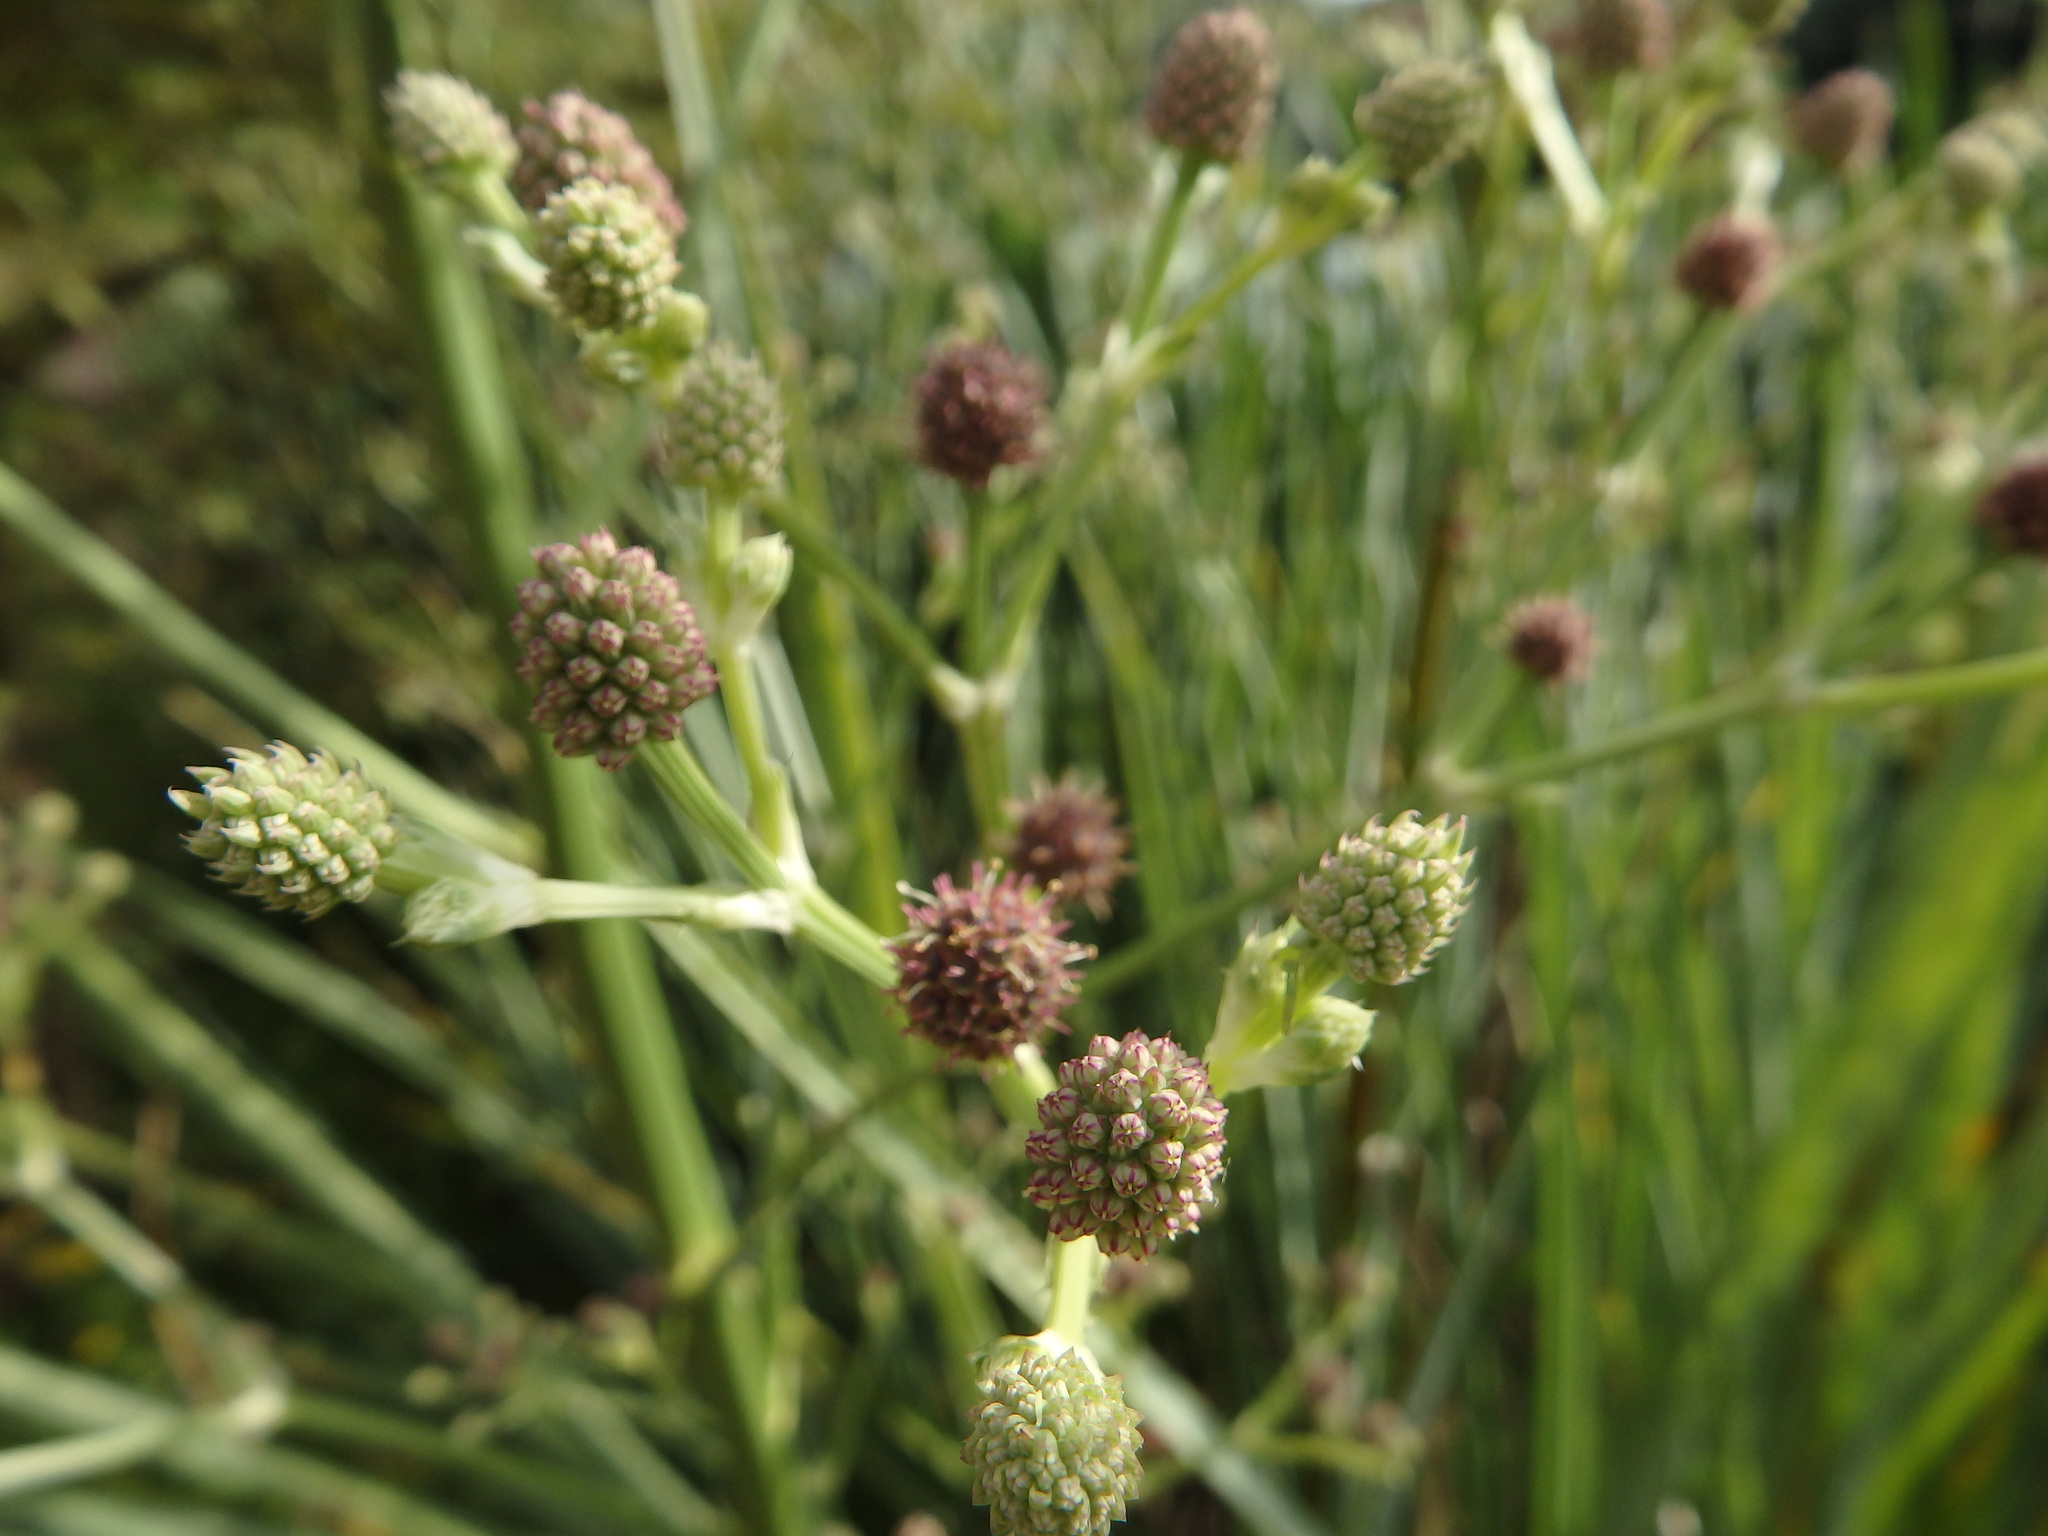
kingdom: Plantae
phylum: Tracheophyta
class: Magnoliopsida
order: Apiales
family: Apiaceae
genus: Eryngium
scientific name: Eryngium pandanifolium
